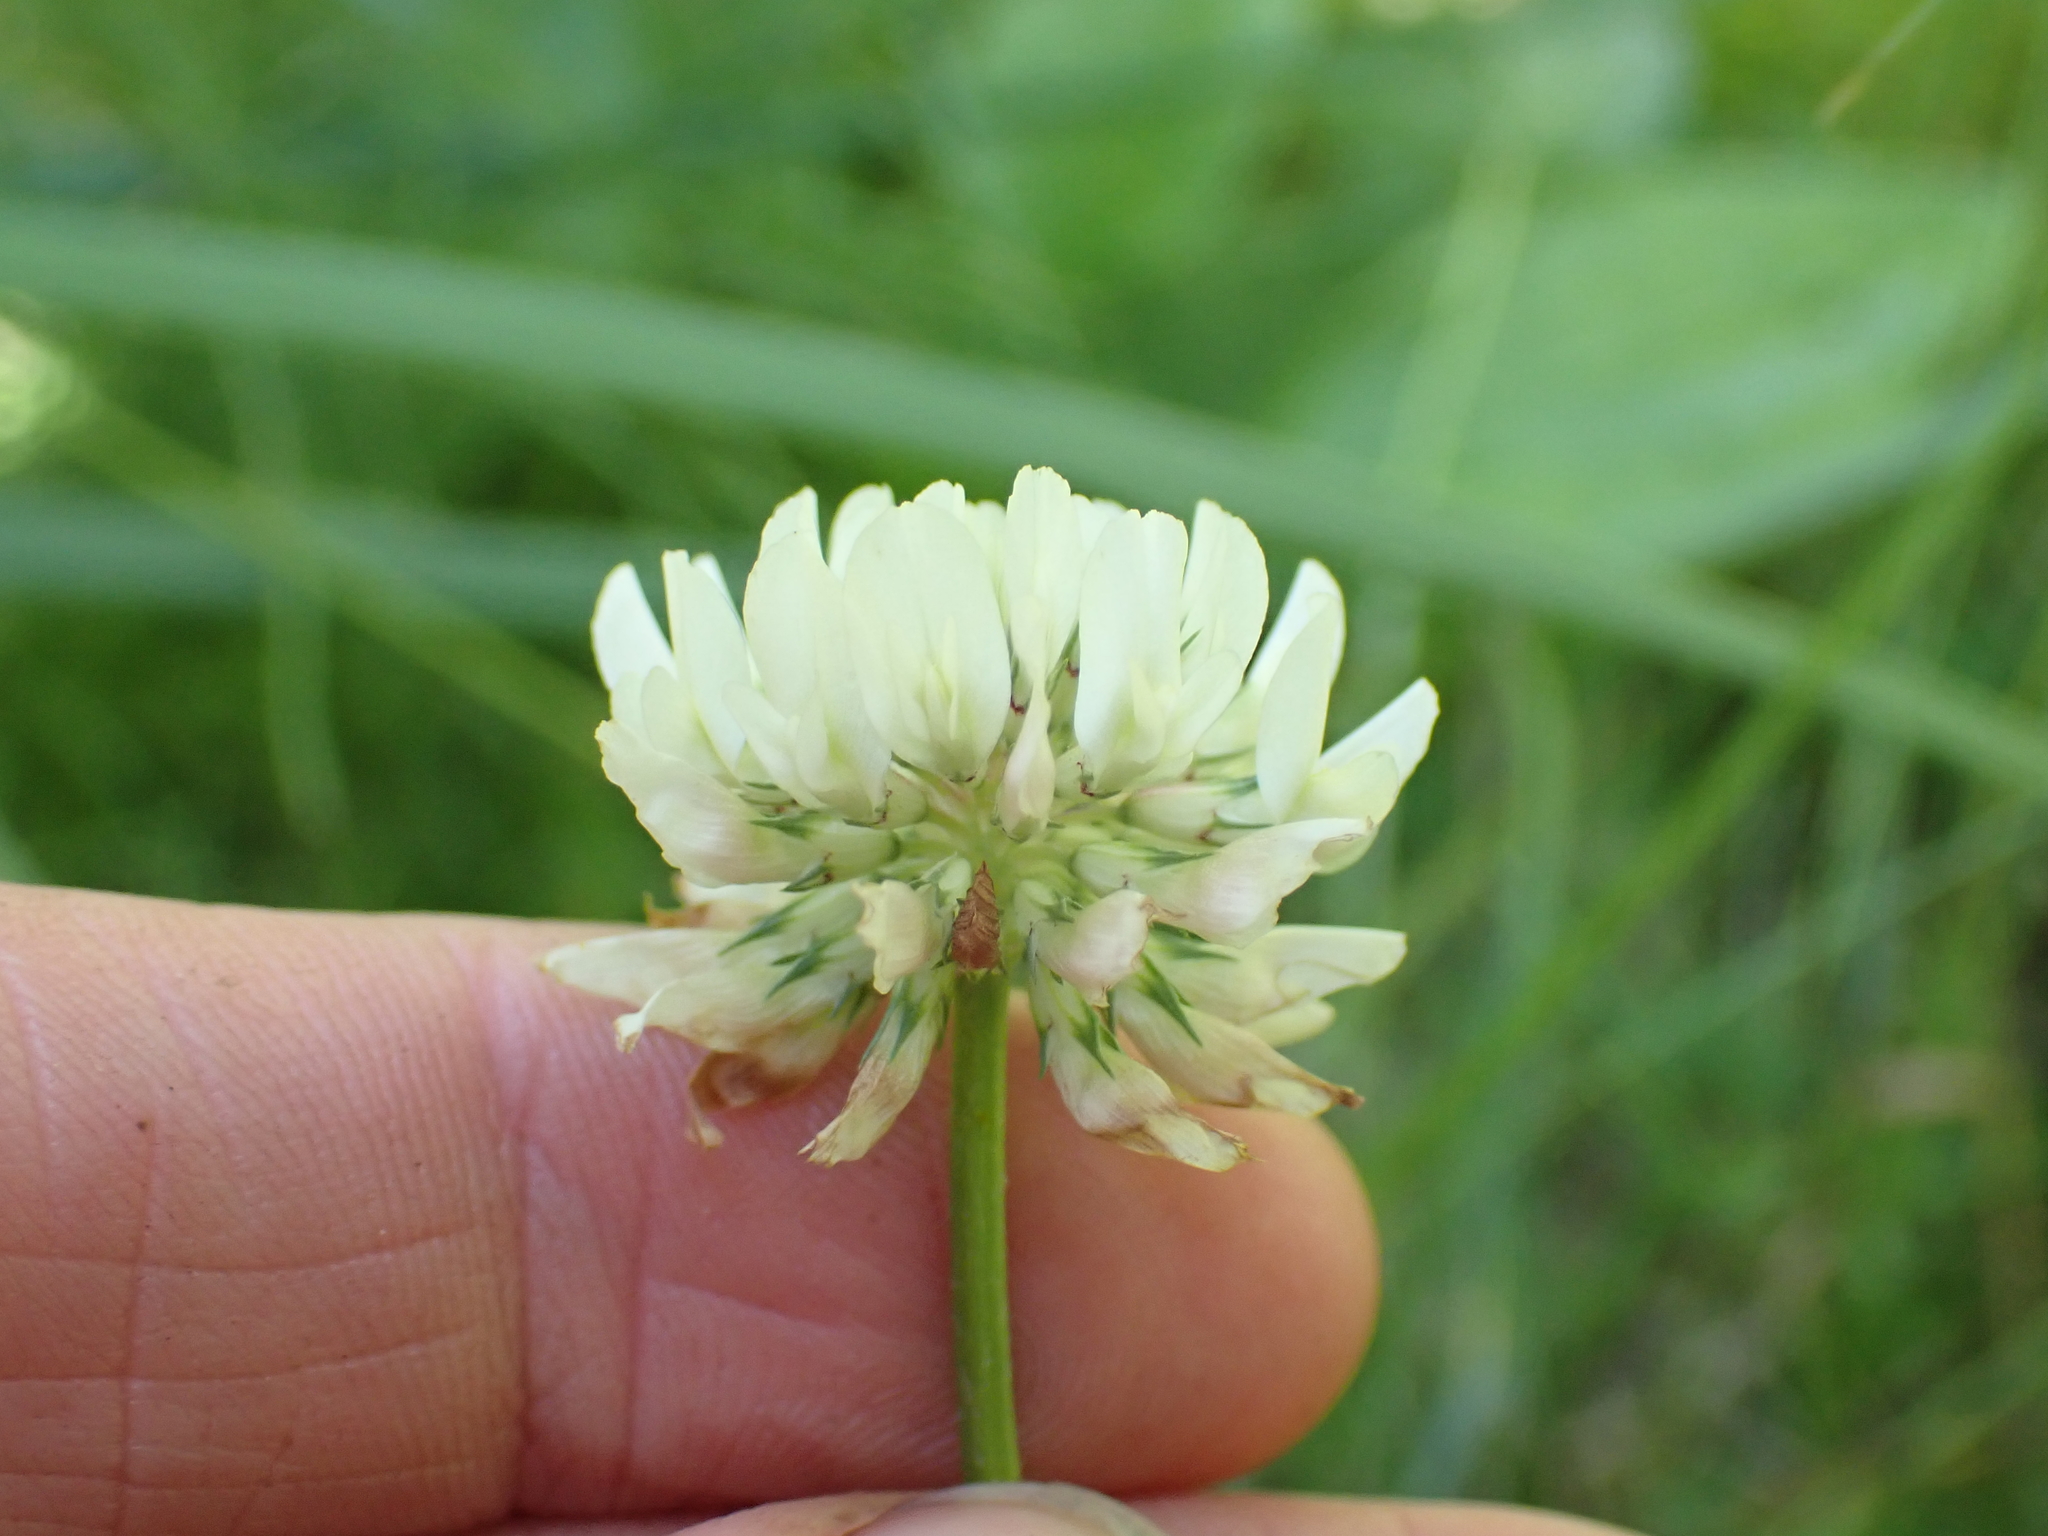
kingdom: Plantae
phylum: Tracheophyta
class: Magnoliopsida
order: Fabales
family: Fabaceae
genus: Trifolium
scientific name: Trifolium repens
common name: White clover
